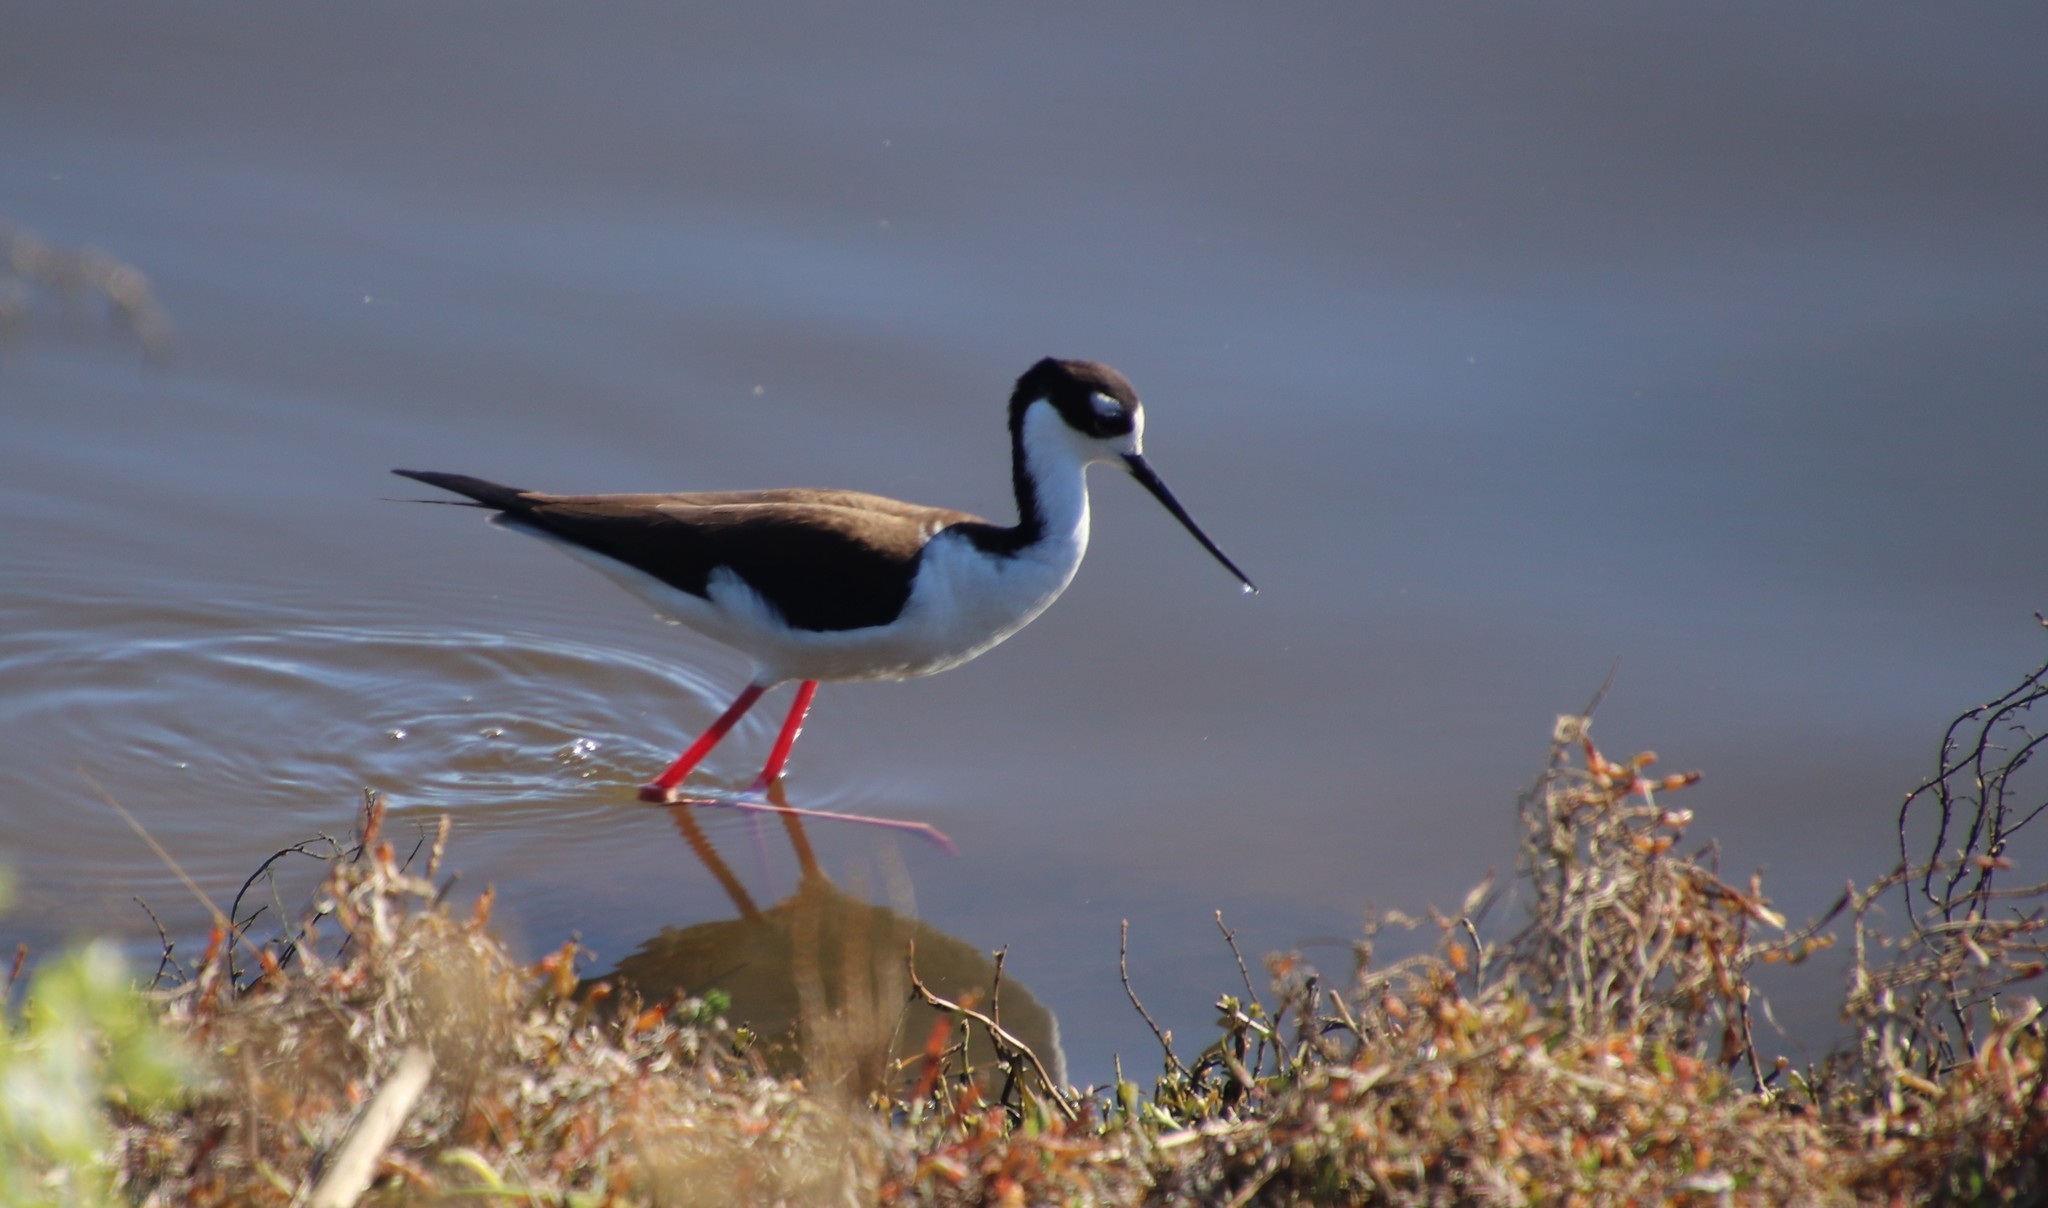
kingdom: Animalia
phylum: Chordata
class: Aves
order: Charadriiformes
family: Recurvirostridae
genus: Himantopus
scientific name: Himantopus mexicanus
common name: Black-necked stilt
